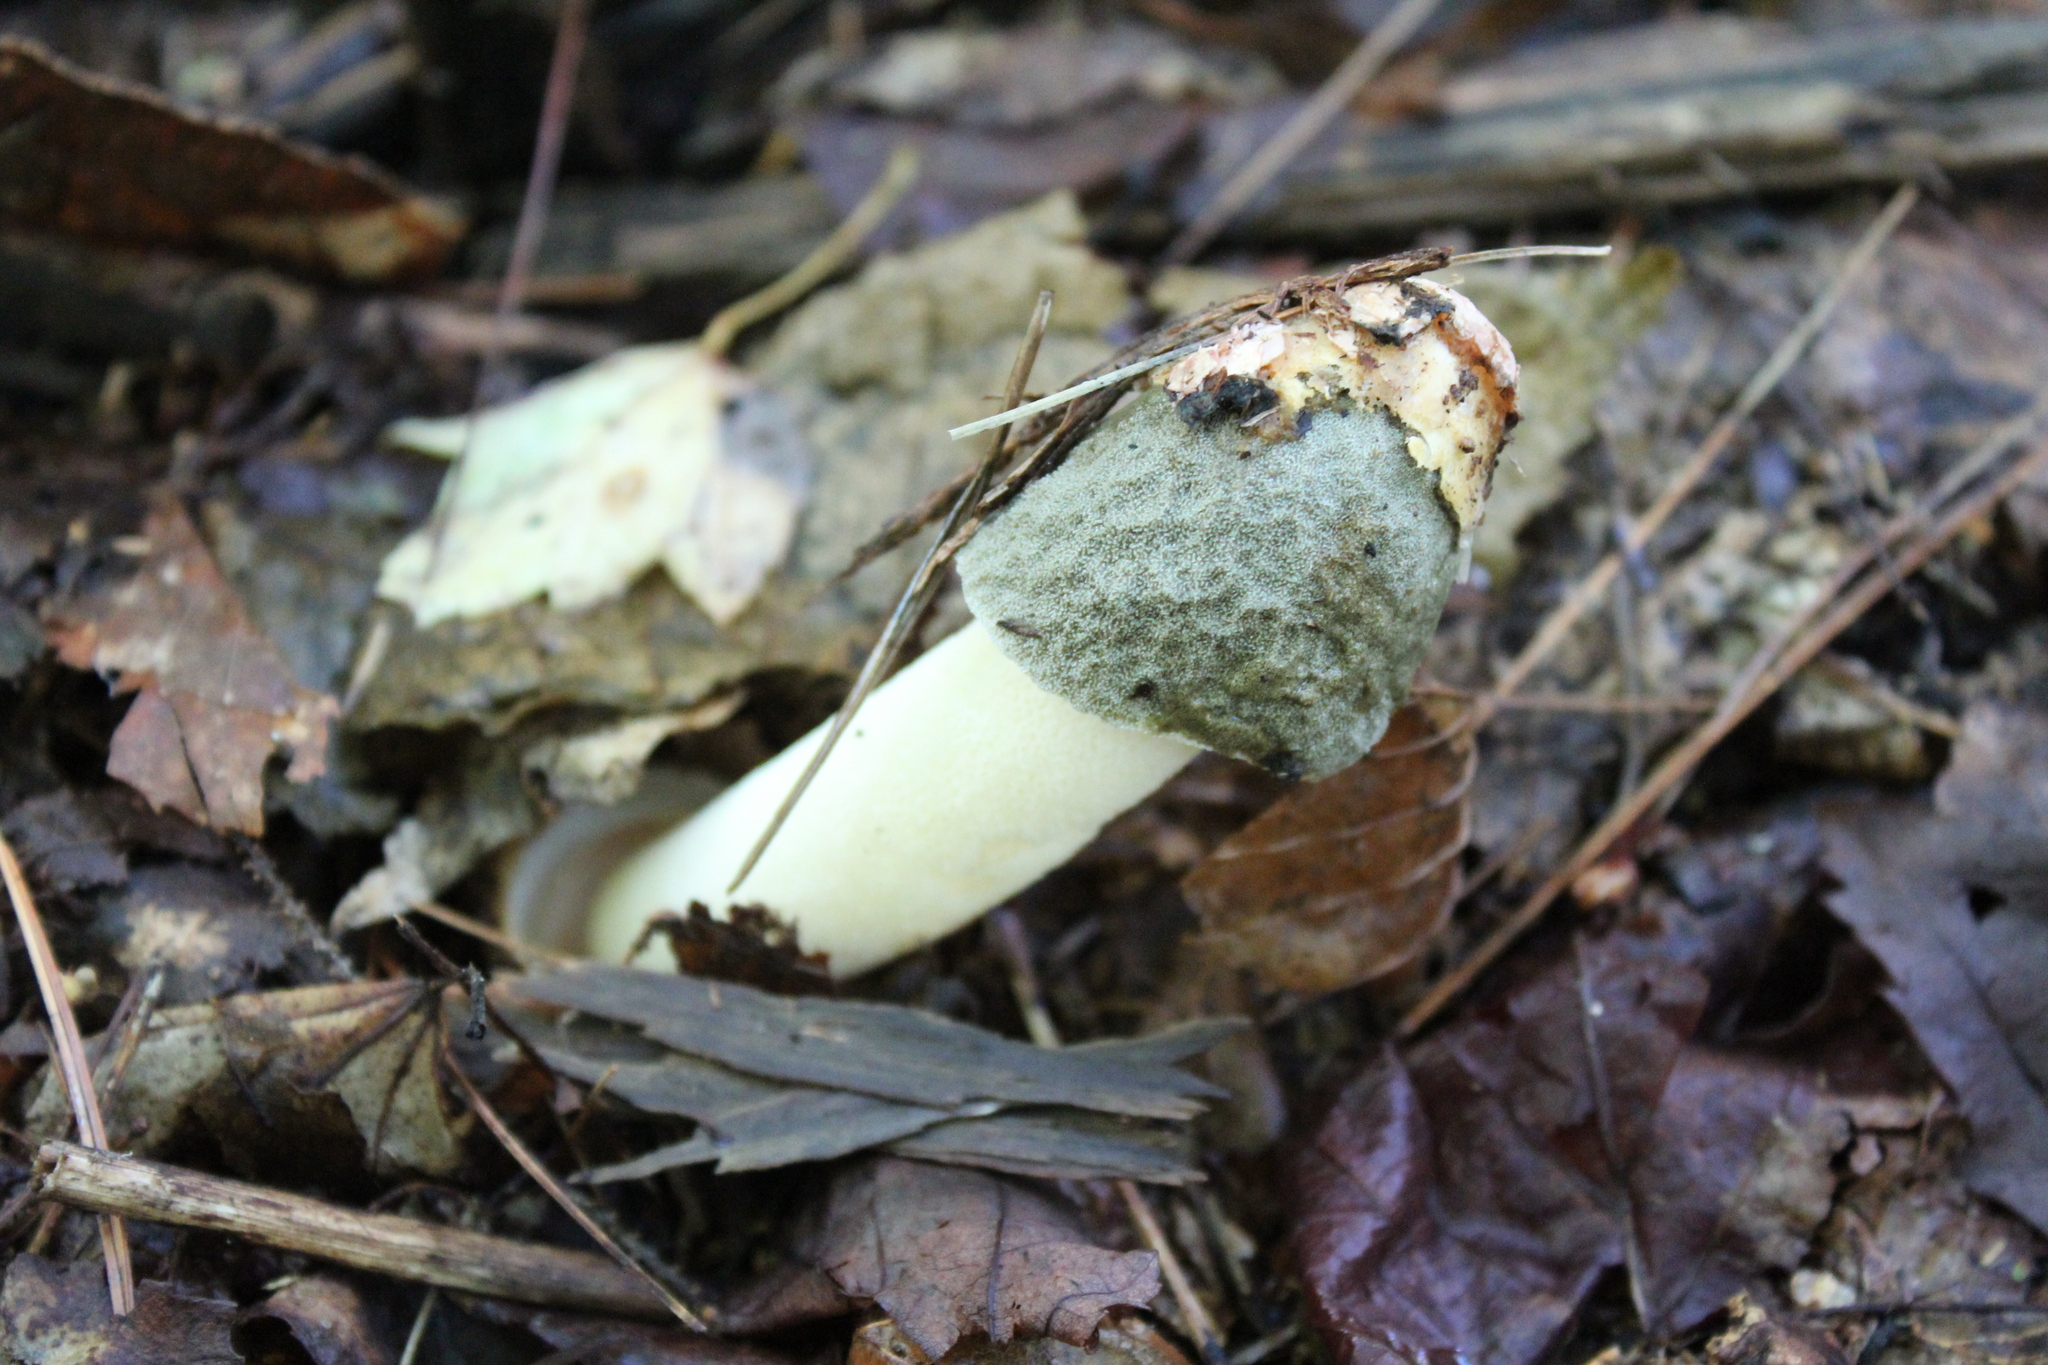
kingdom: Fungi
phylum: Basidiomycota
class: Agaricomycetes
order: Phallales
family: Phallaceae
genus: Phallus
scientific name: Phallus ravenelii
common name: Ravenel's stinkhorn
